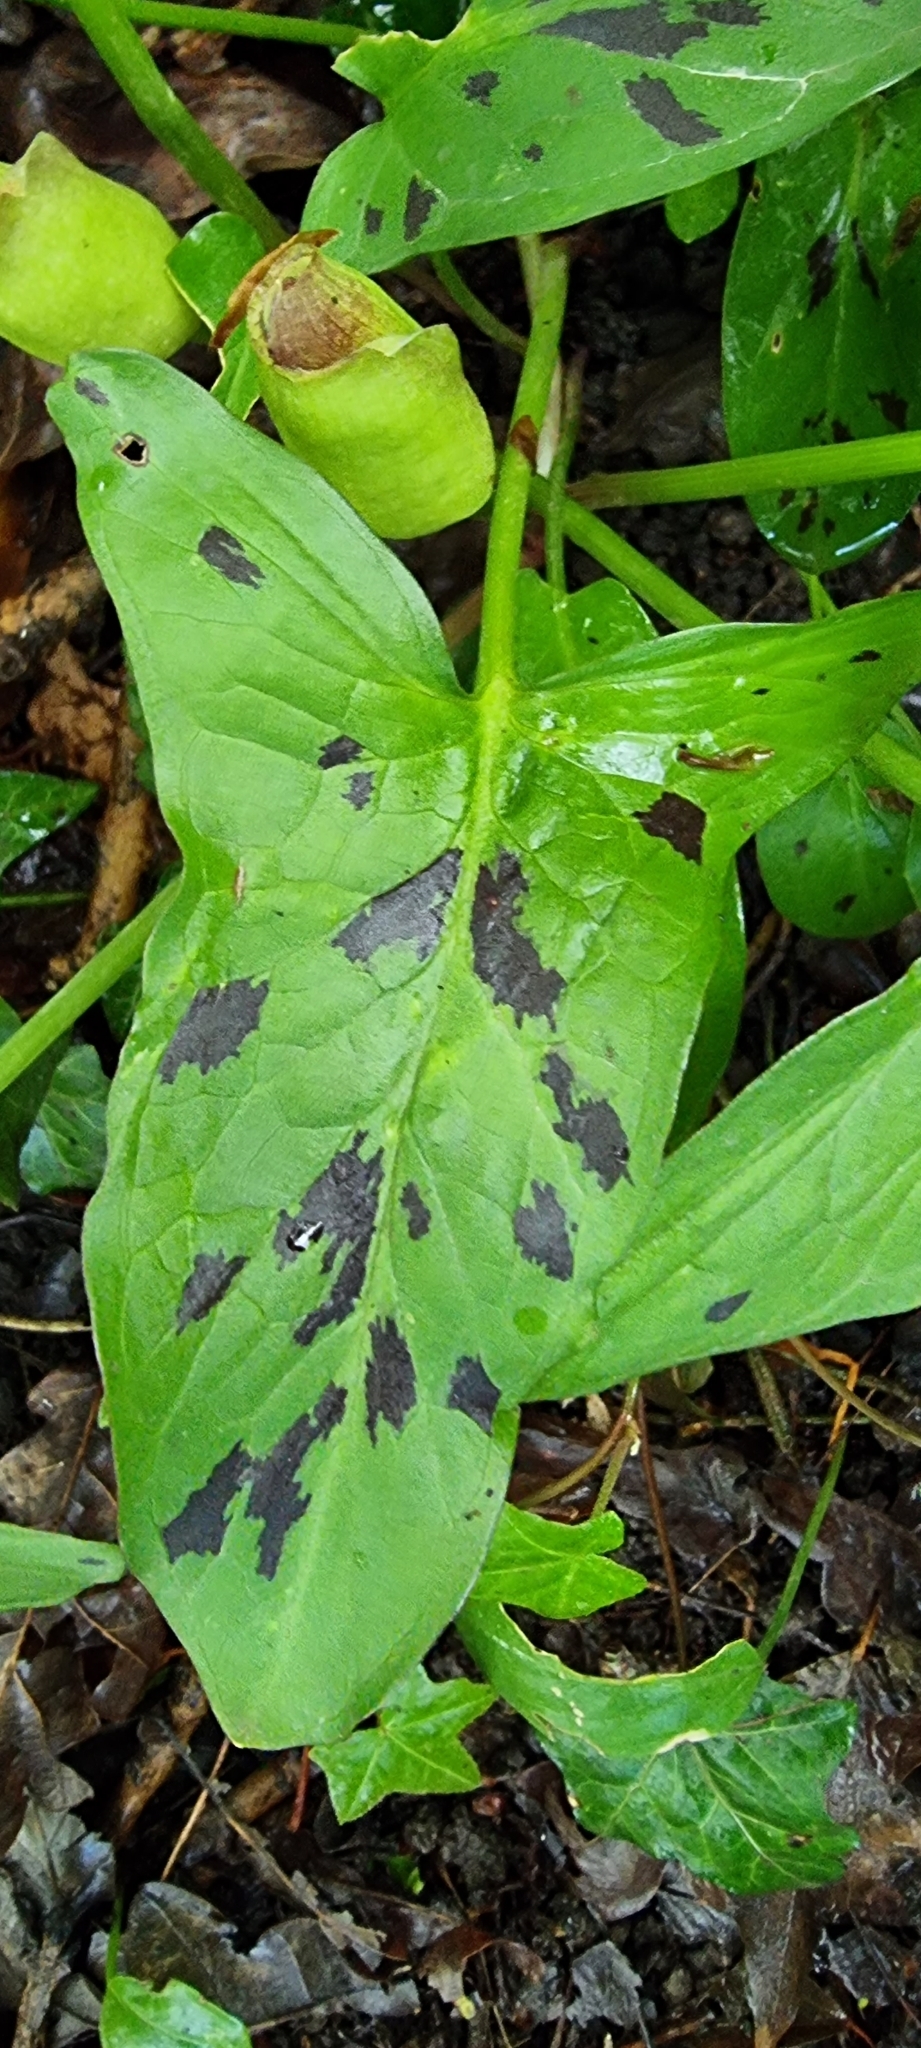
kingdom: Plantae
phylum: Tracheophyta
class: Liliopsida
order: Alismatales
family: Araceae
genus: Arum
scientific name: Arum maculatum
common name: Lords-and-ladies
